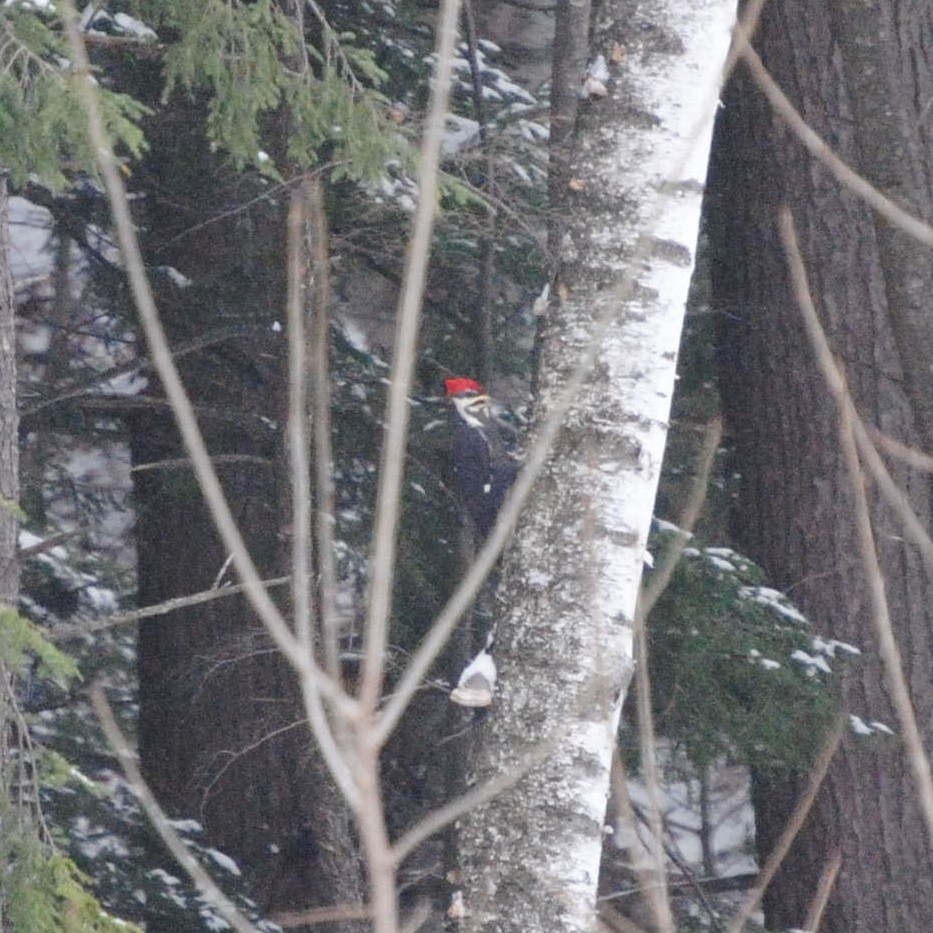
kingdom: Animalia
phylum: Chordata
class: Aves
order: Piciformes
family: Picidae
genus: Dryocopus
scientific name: Dryocopus pileatus
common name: Pileated woodpecker
